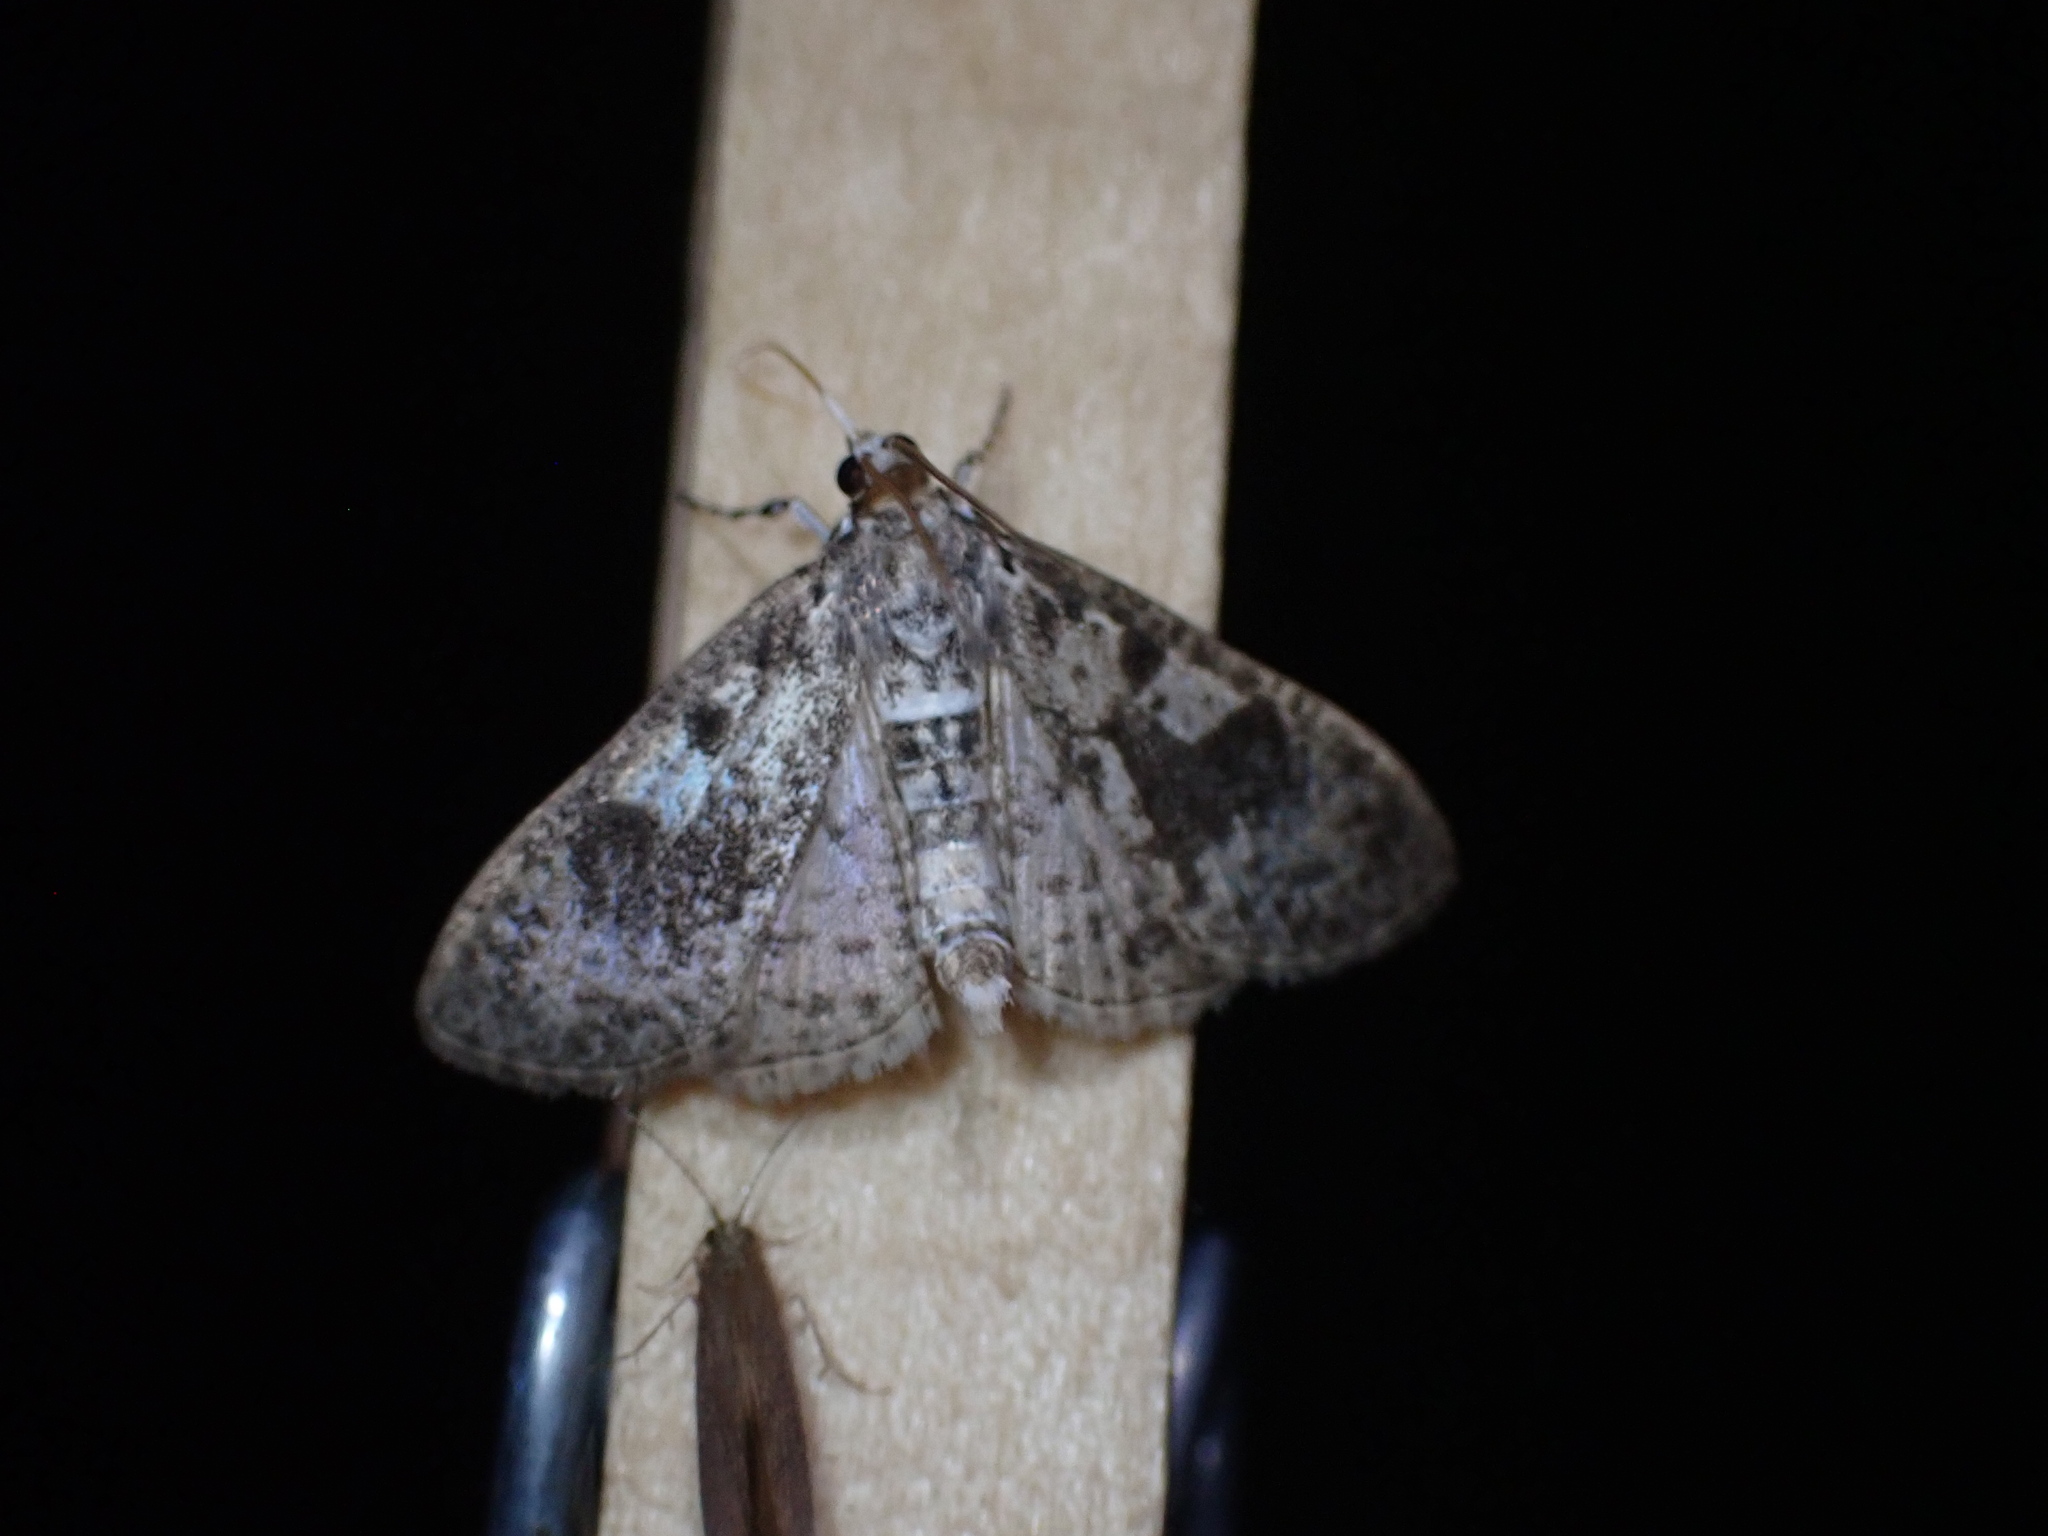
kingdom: Animalia
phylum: Arthropoda
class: Insecta
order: Lepidoptera
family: Crambidae
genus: Palpita
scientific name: Palpita magniferalis
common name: Splendid palpita moth
